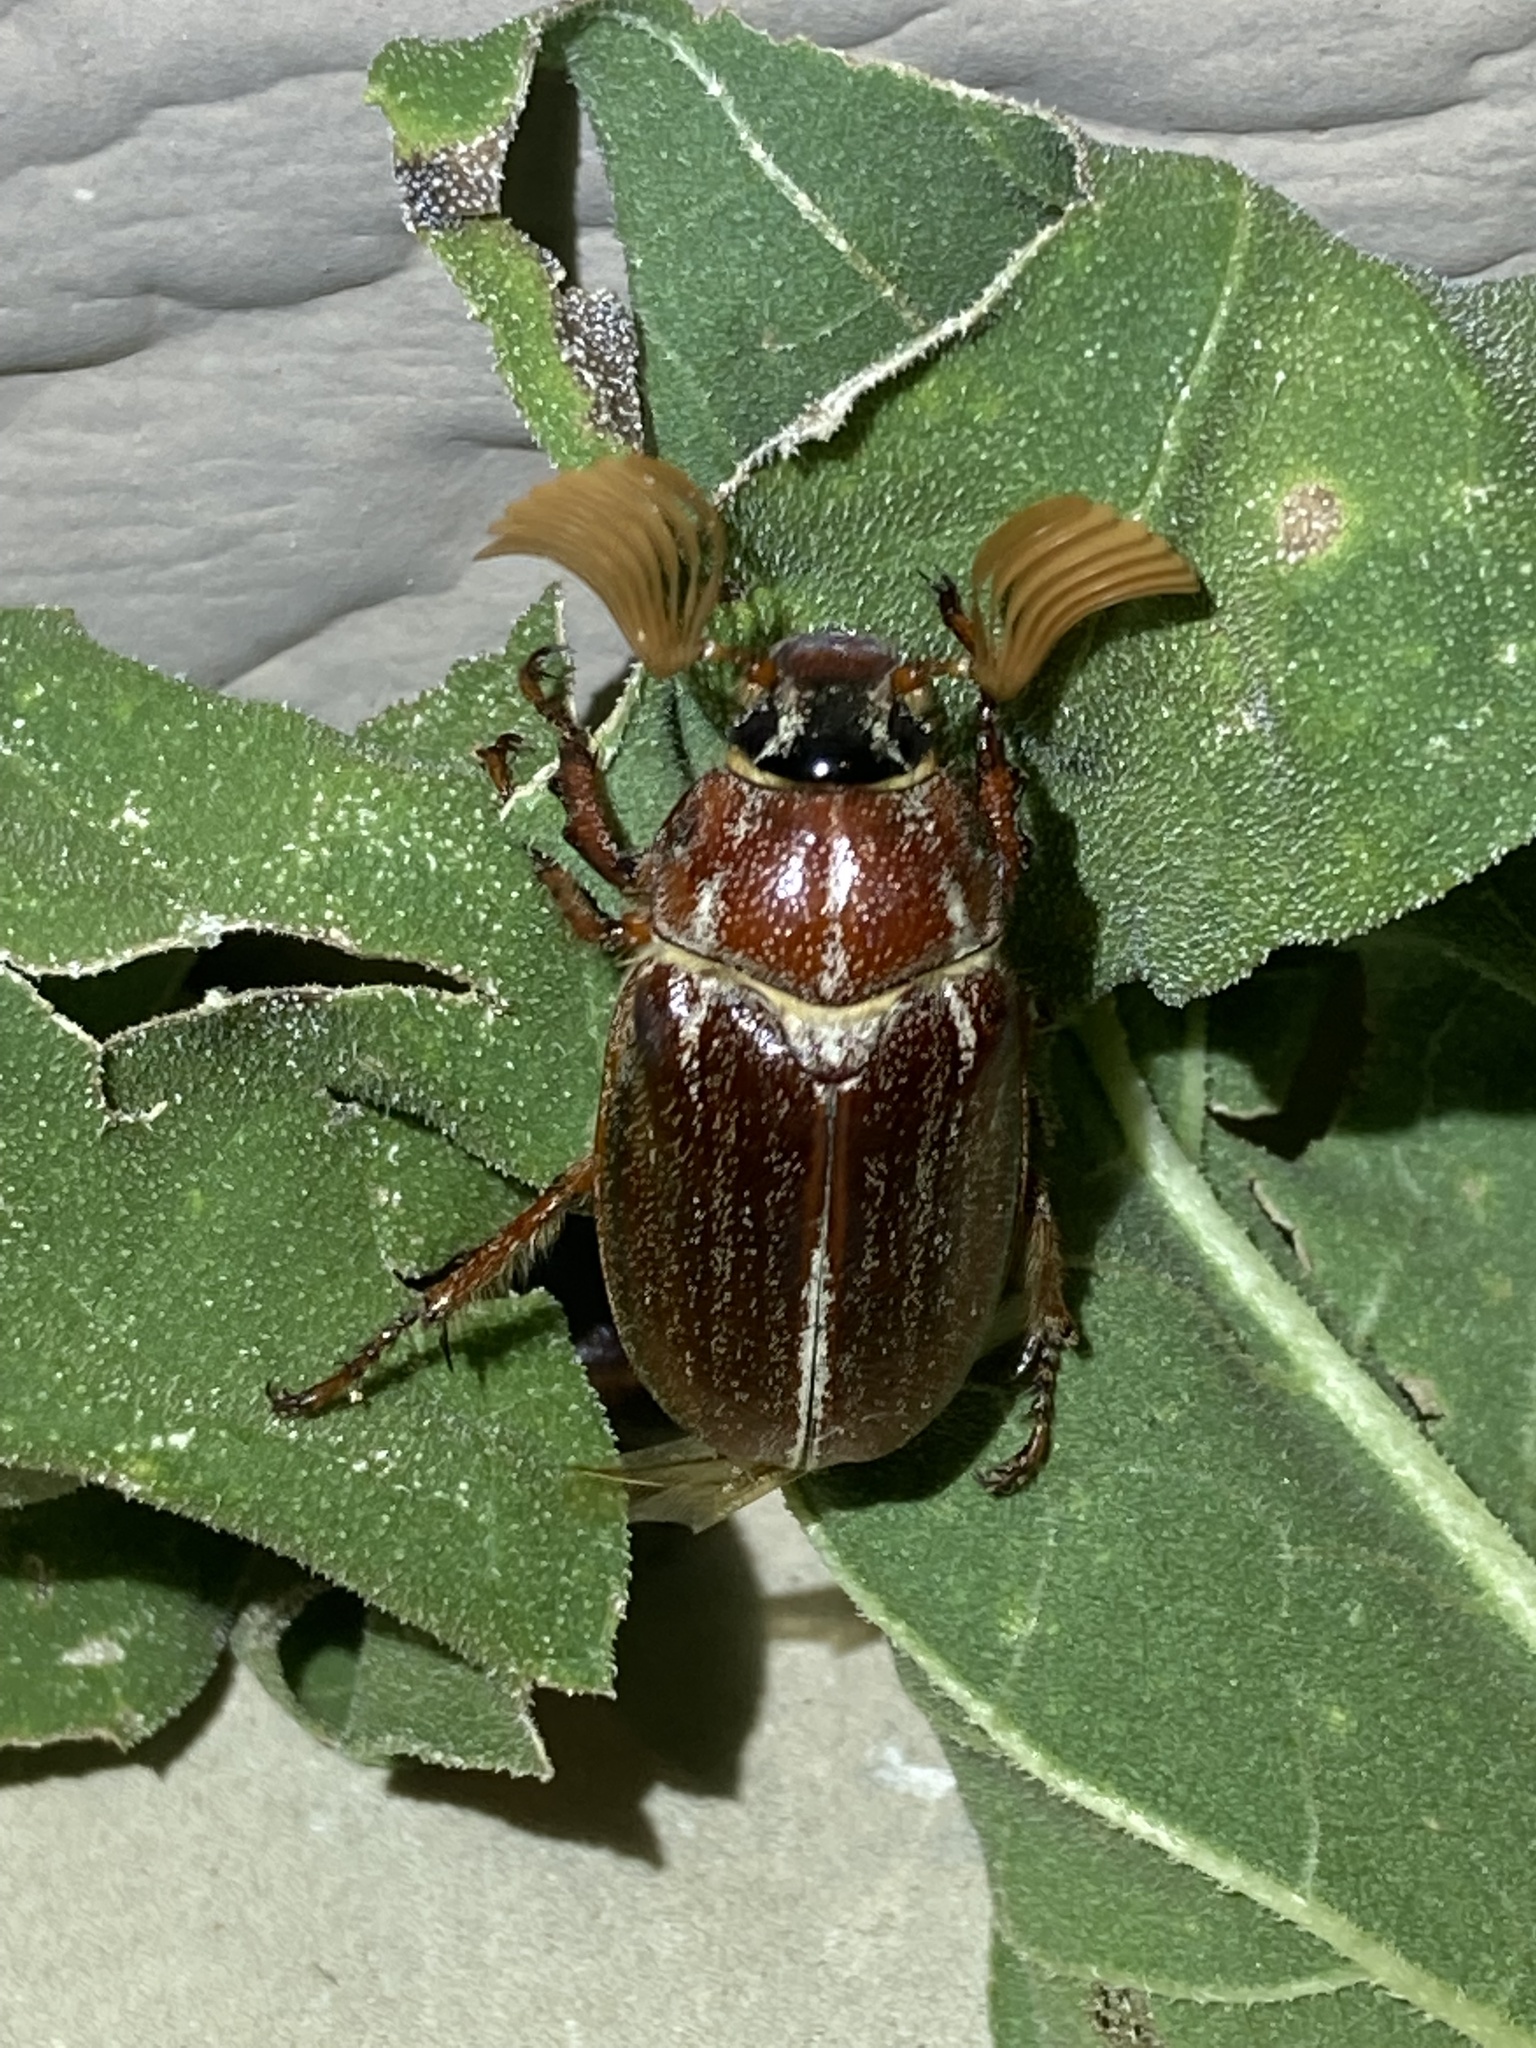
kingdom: Animalia
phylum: Arthropoda
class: Insecta
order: Coleoptera
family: Scarabaeidae
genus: Polyphylla
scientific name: Polyphylla hammondi
